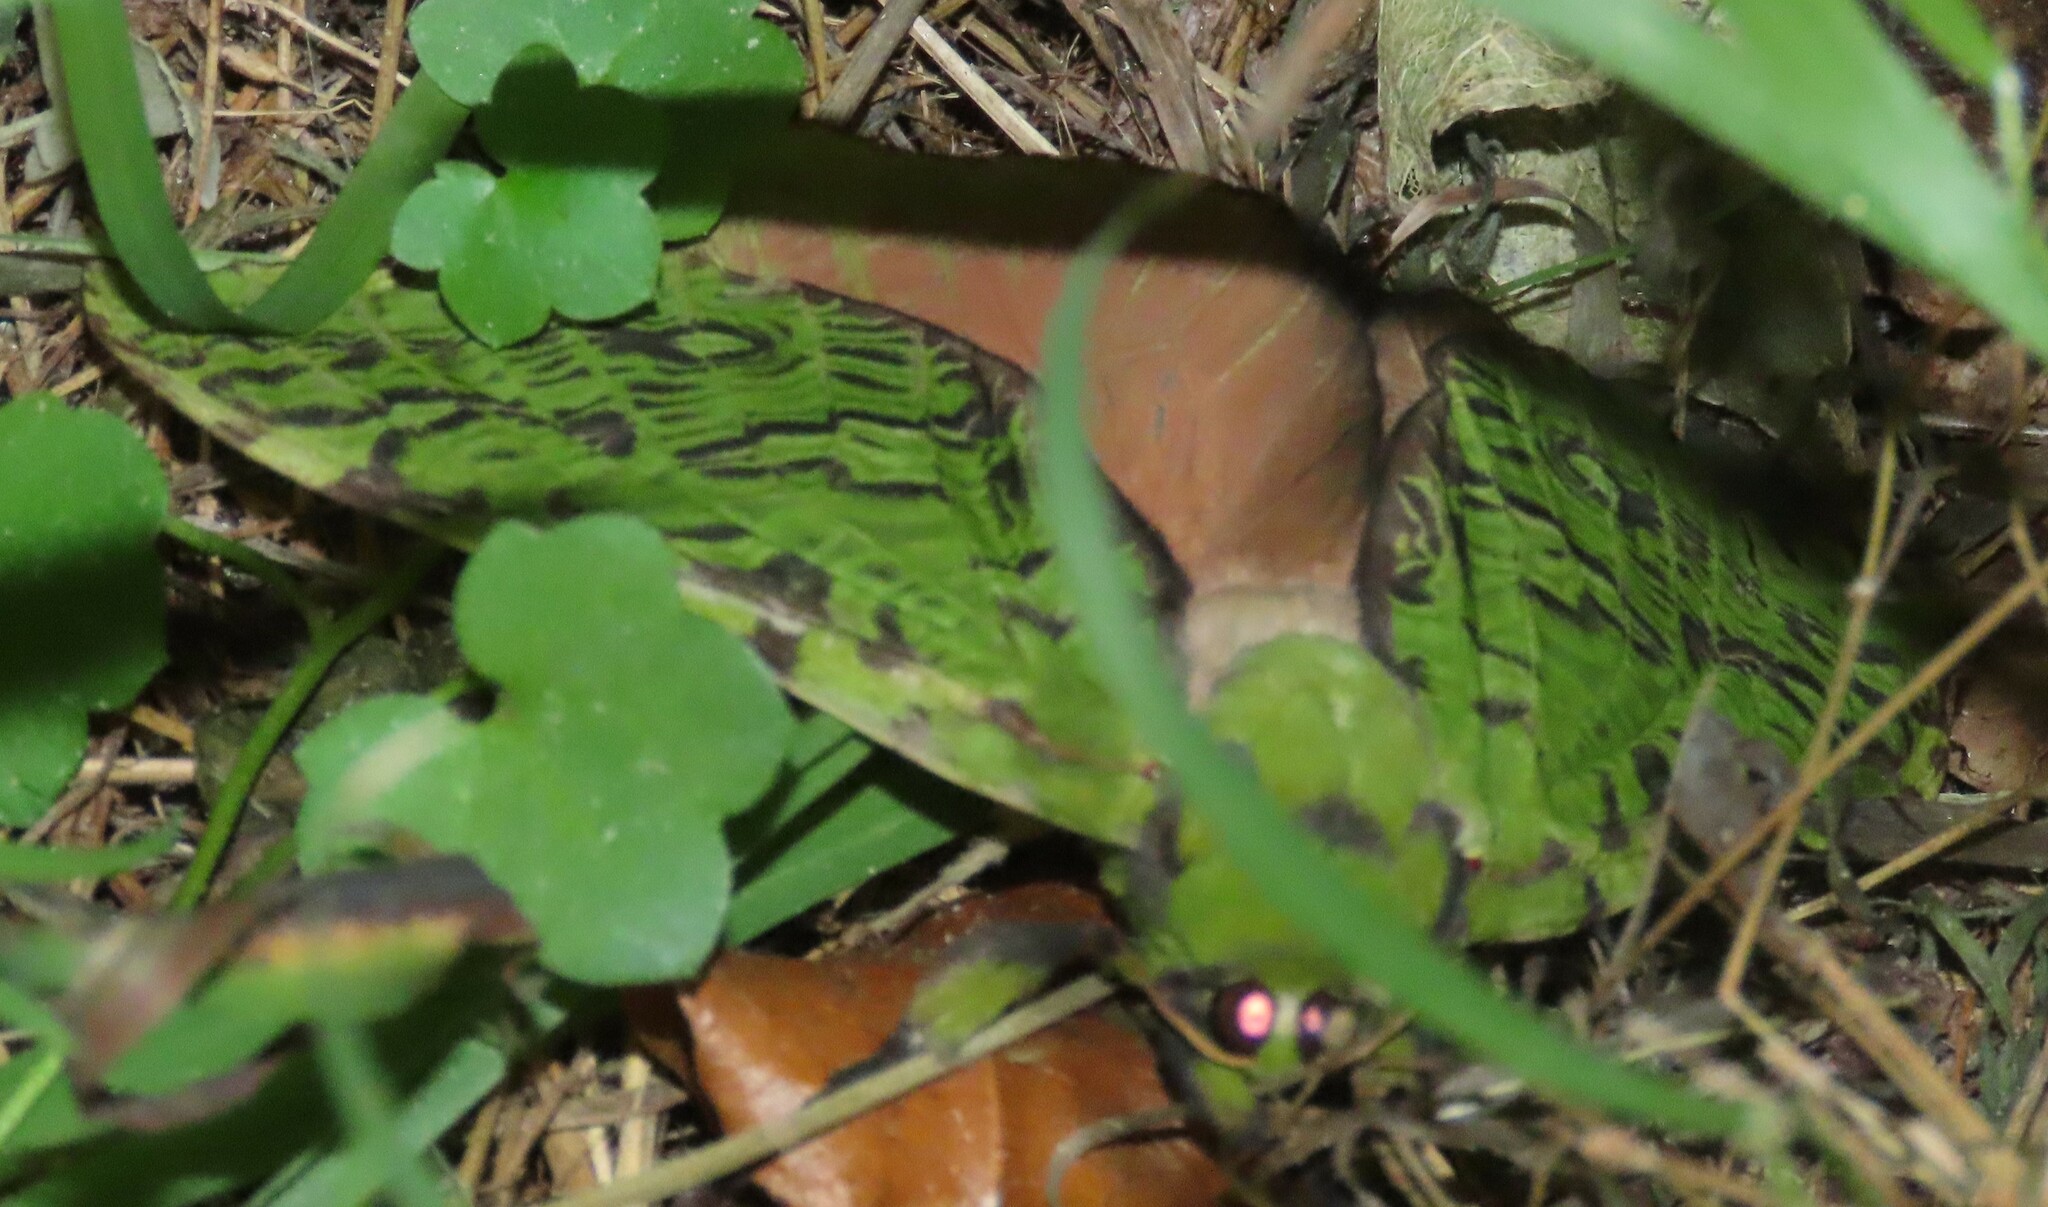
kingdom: Animalia
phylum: Arthropoda
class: Insecta
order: Lepidoptera
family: Hepialidae
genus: Aenetus
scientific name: Aenetus virescens
